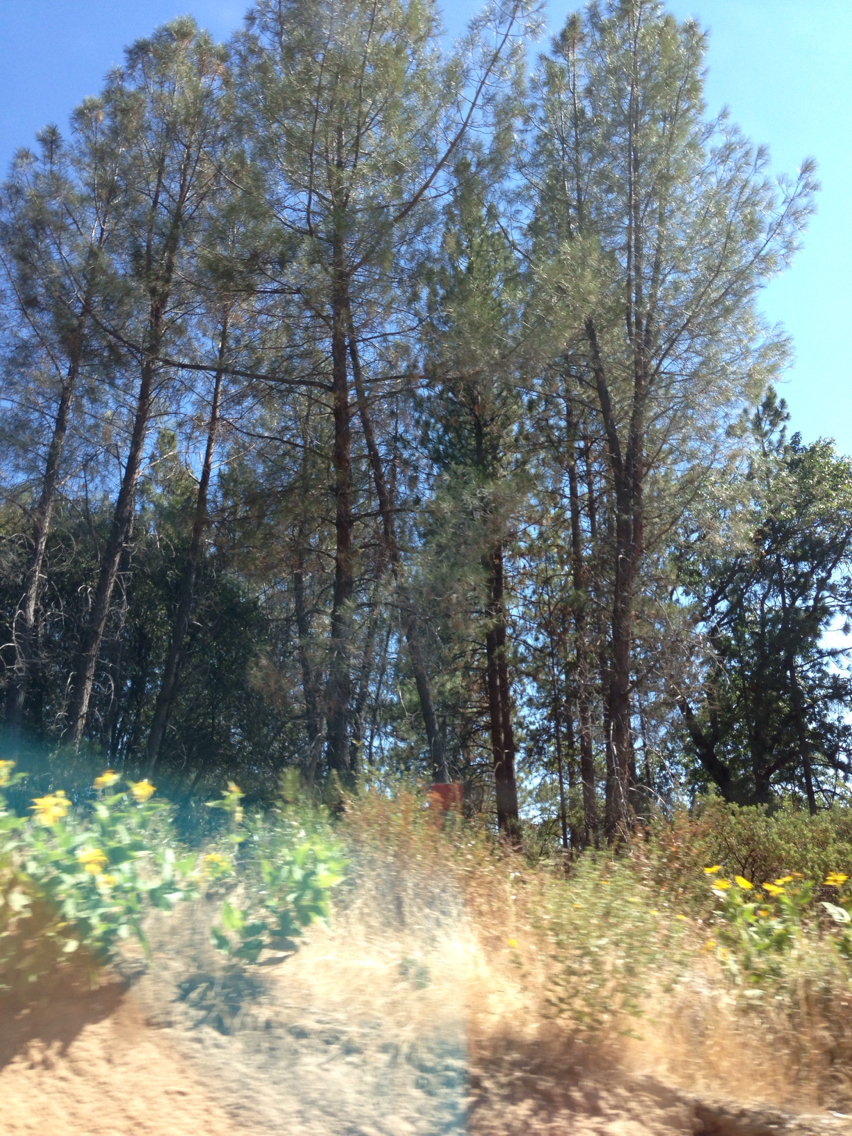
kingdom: Plantae
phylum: Tracheophyta
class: Pinopsida
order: Pinales
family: Pinaceae
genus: Pinus
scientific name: Pinus sabiniana
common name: Bull pine
